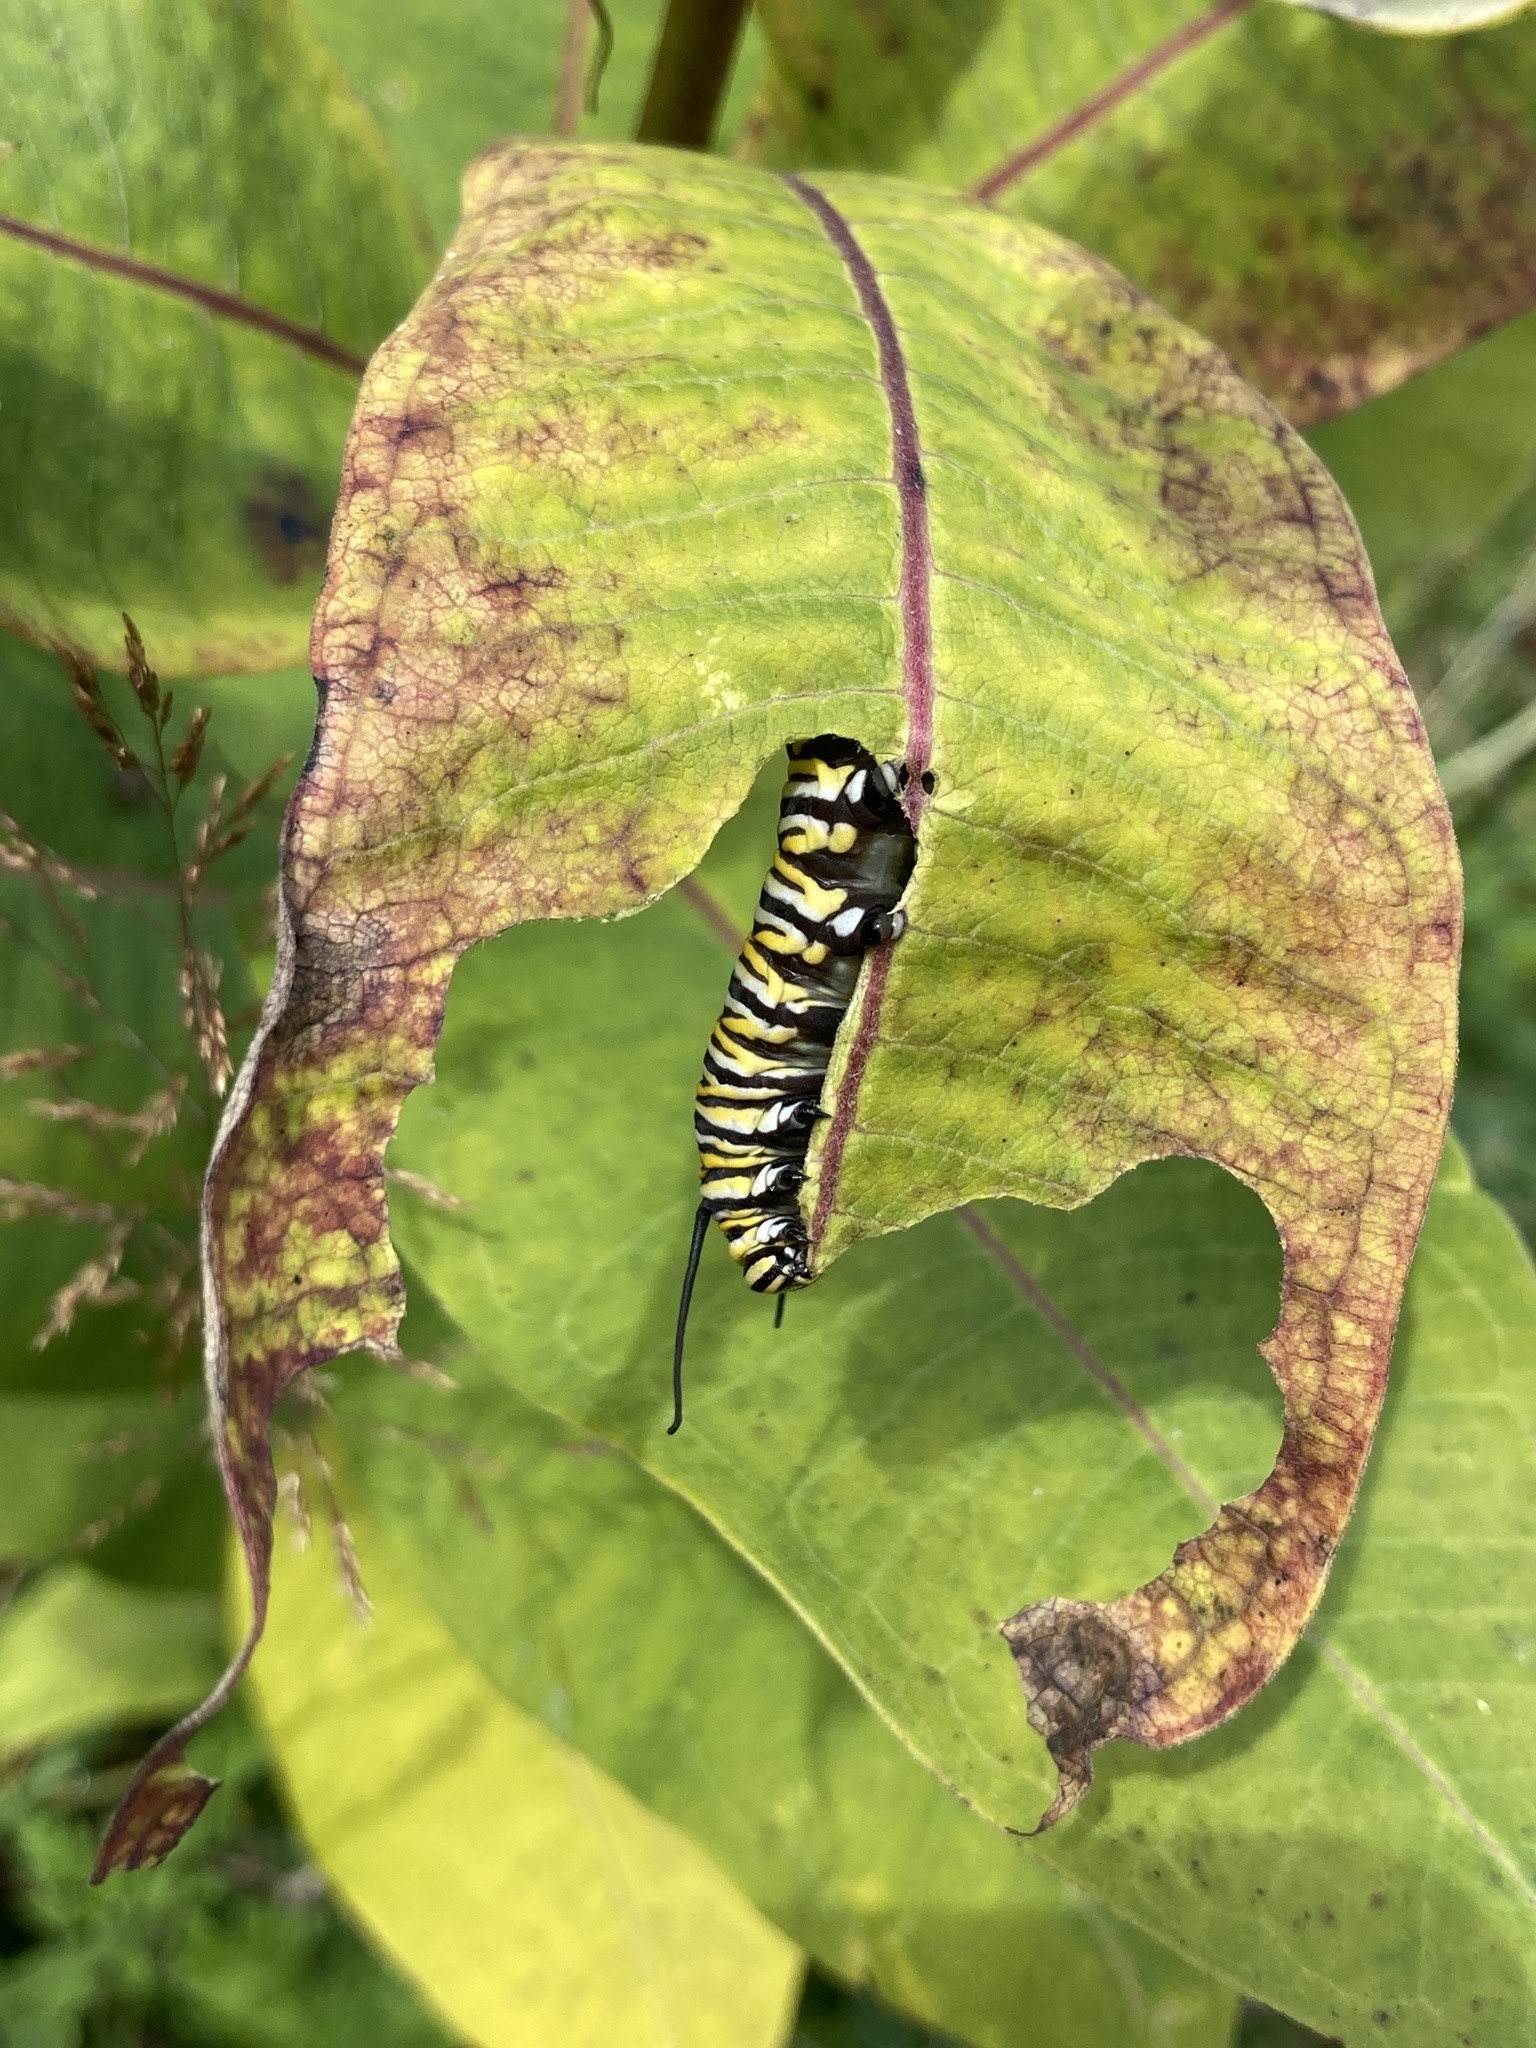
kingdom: Animalia
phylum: Arthropoda
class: Insecta
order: Lepidoptera
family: Nymphalidae
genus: Danaus
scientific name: Danaus plexippus
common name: Monarch
